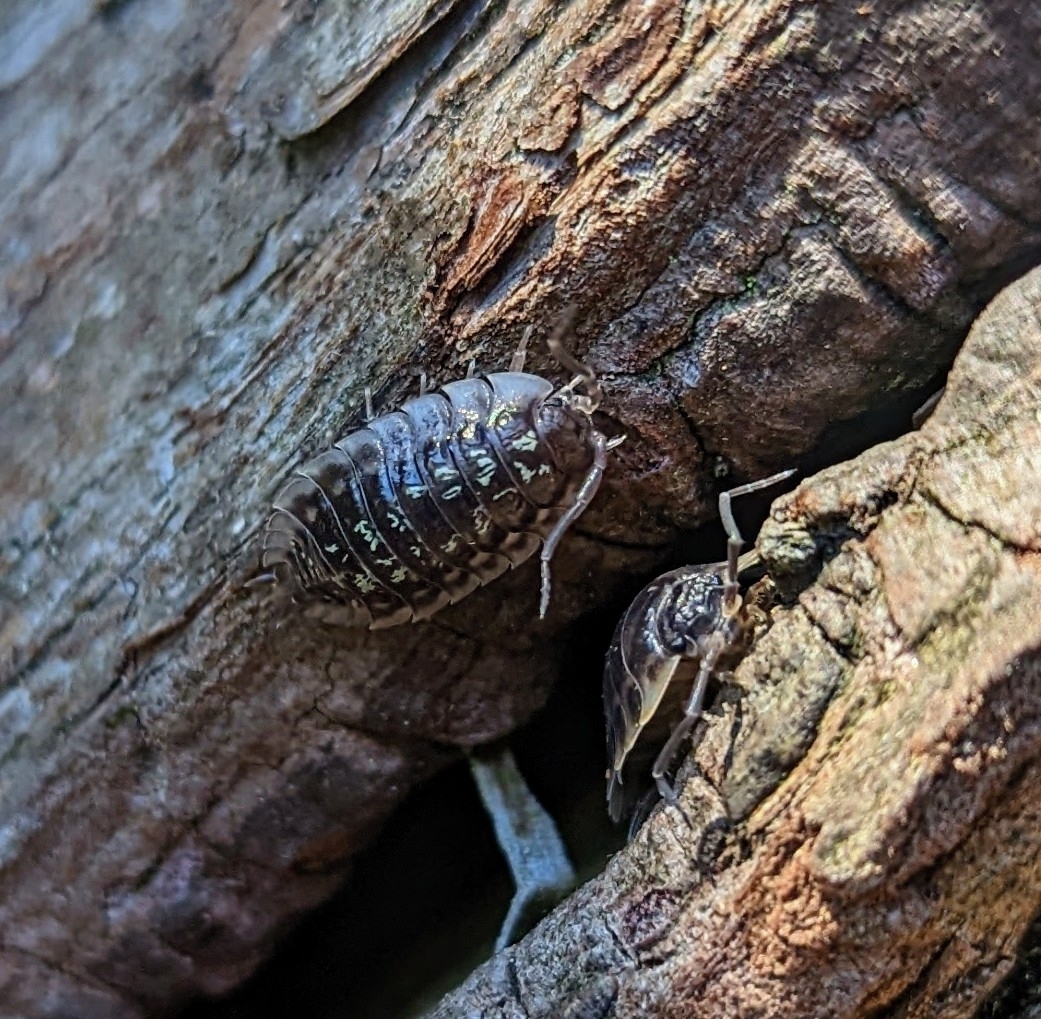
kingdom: Animalia
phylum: Arthropoda
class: Malacostraca
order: Isopoda
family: Oniscidae
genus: Oniscus
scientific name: Oniscus asellus
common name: Common shiny woodlouse
